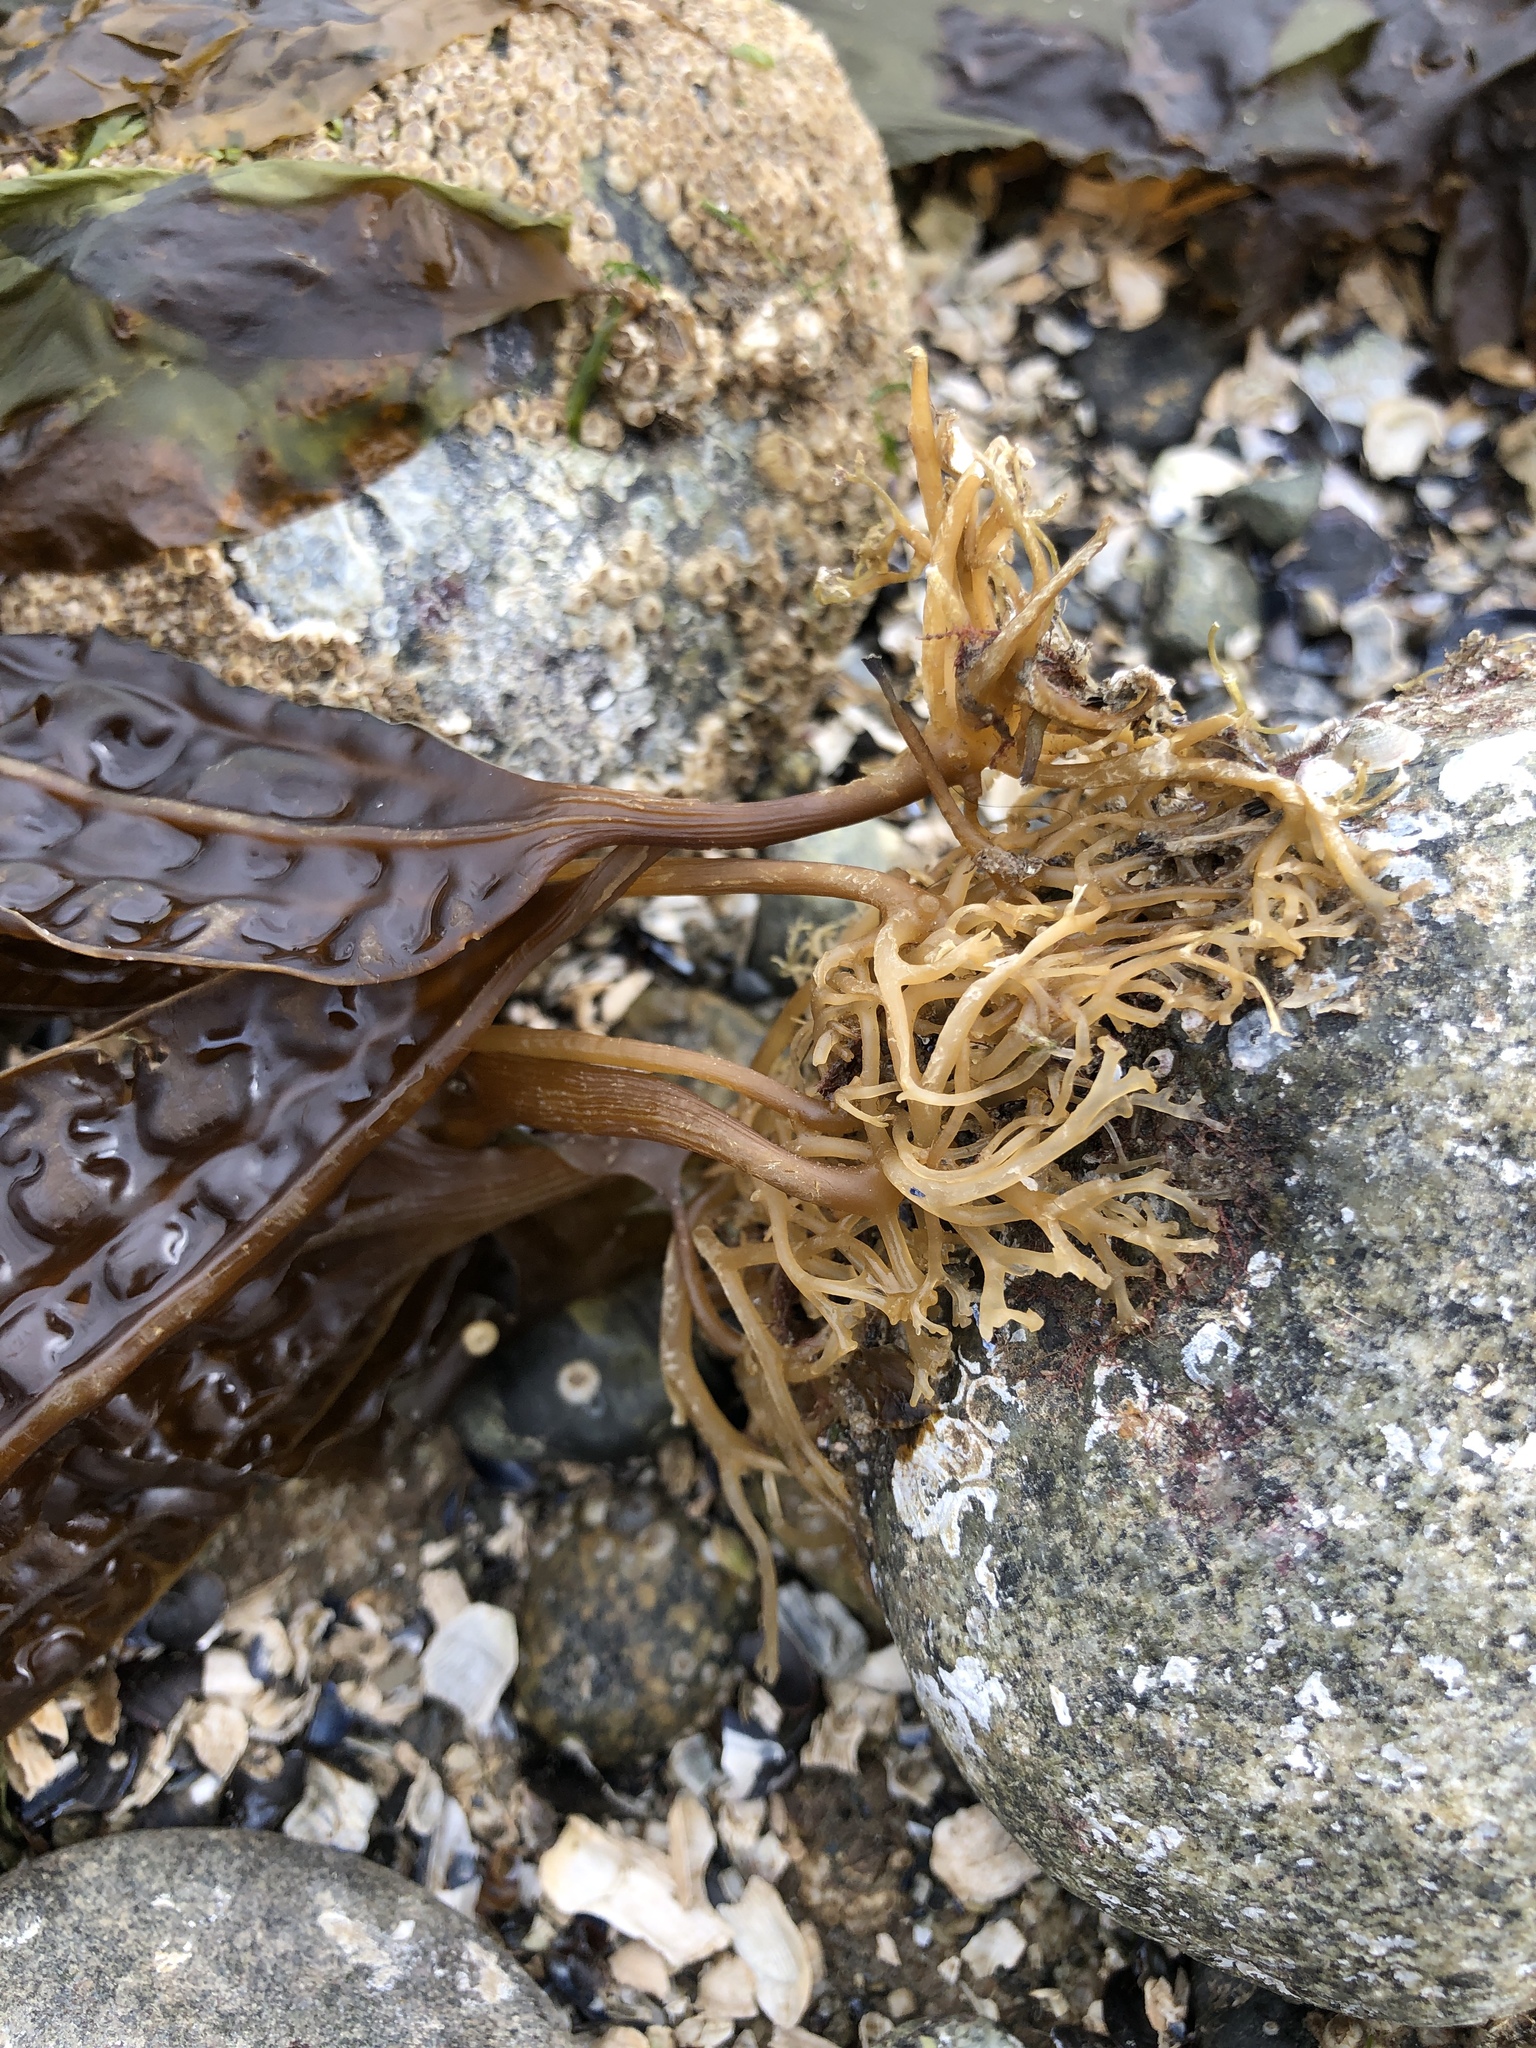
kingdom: Chromista
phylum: Ochrophyta
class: Phaeophyceae
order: Laminariales
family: Costariaceae
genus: Costaria
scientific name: Costaria costata
